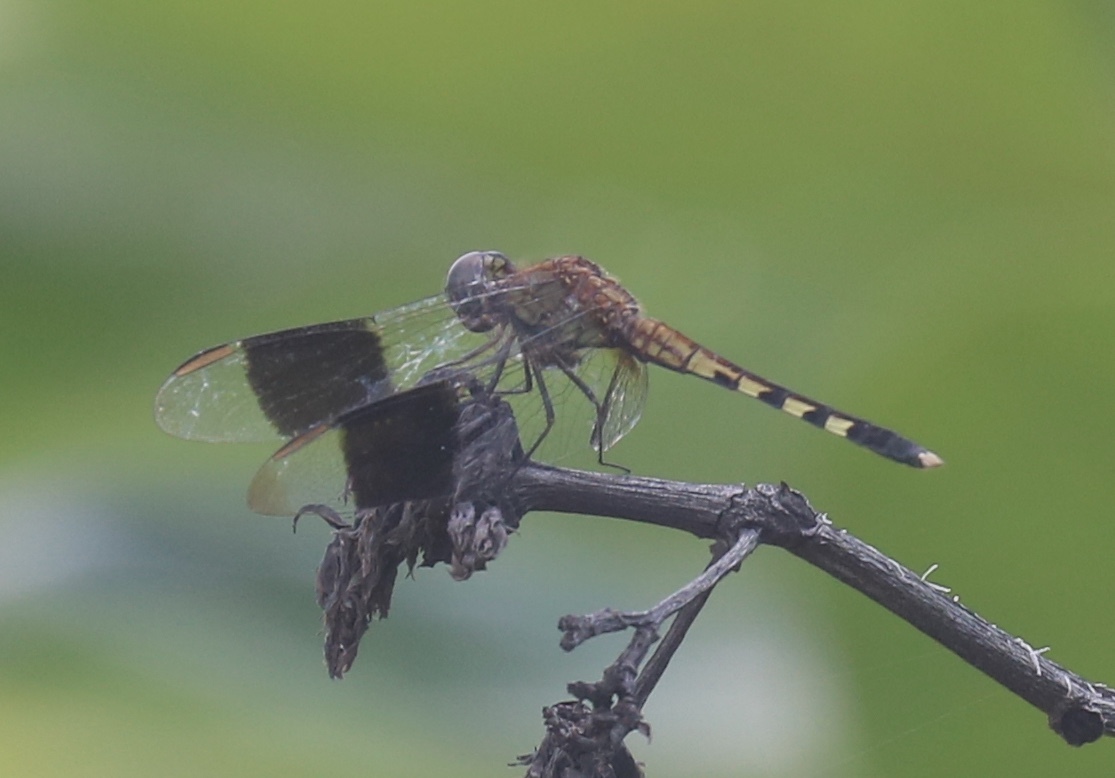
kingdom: Animalia
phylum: Arthropoda
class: Insecta
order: Odonata
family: Libellulidae
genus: Erythrodiplax
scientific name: Erythrodiplax umbrata
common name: Band-winged dragonlet
